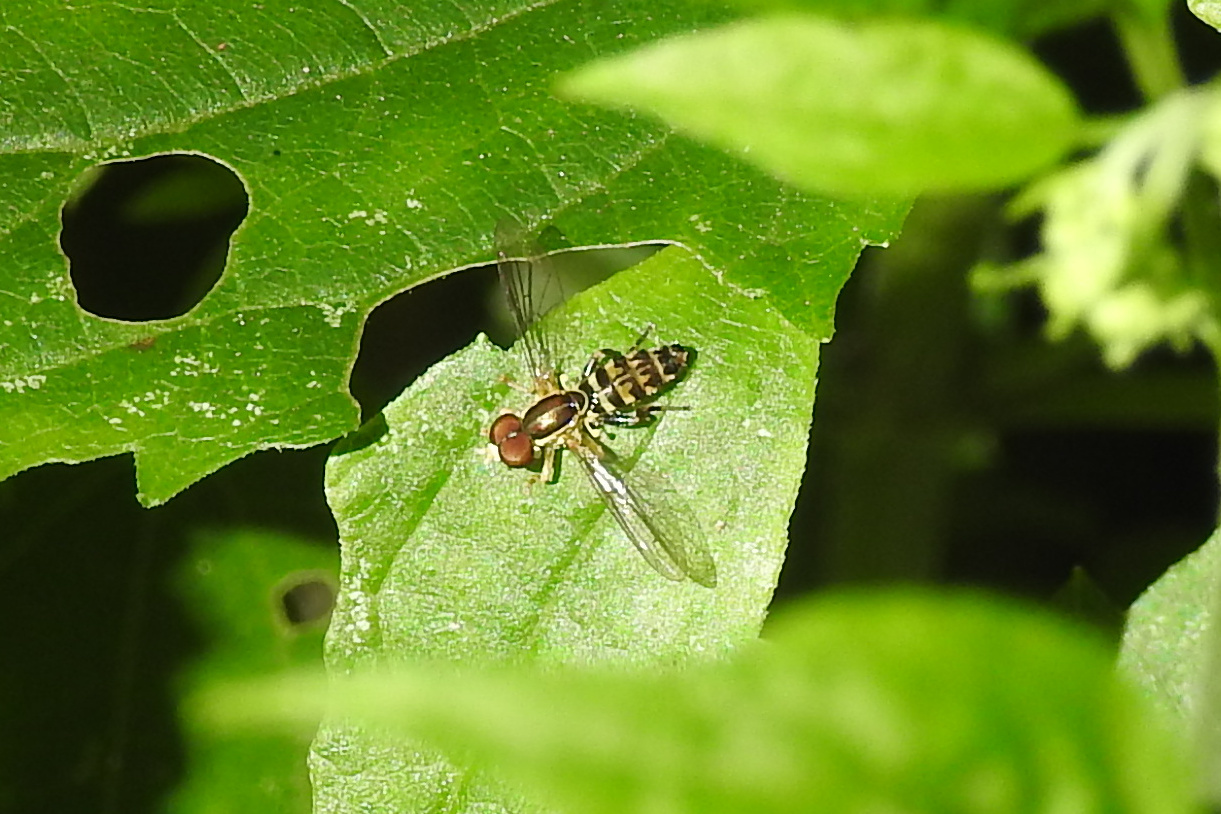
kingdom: Animalia
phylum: Arthropoda
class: Insecta
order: Diptera
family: Syrphidae
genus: Toxomerus
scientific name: Toxomerus geminatus
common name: Eastern calligrapher
